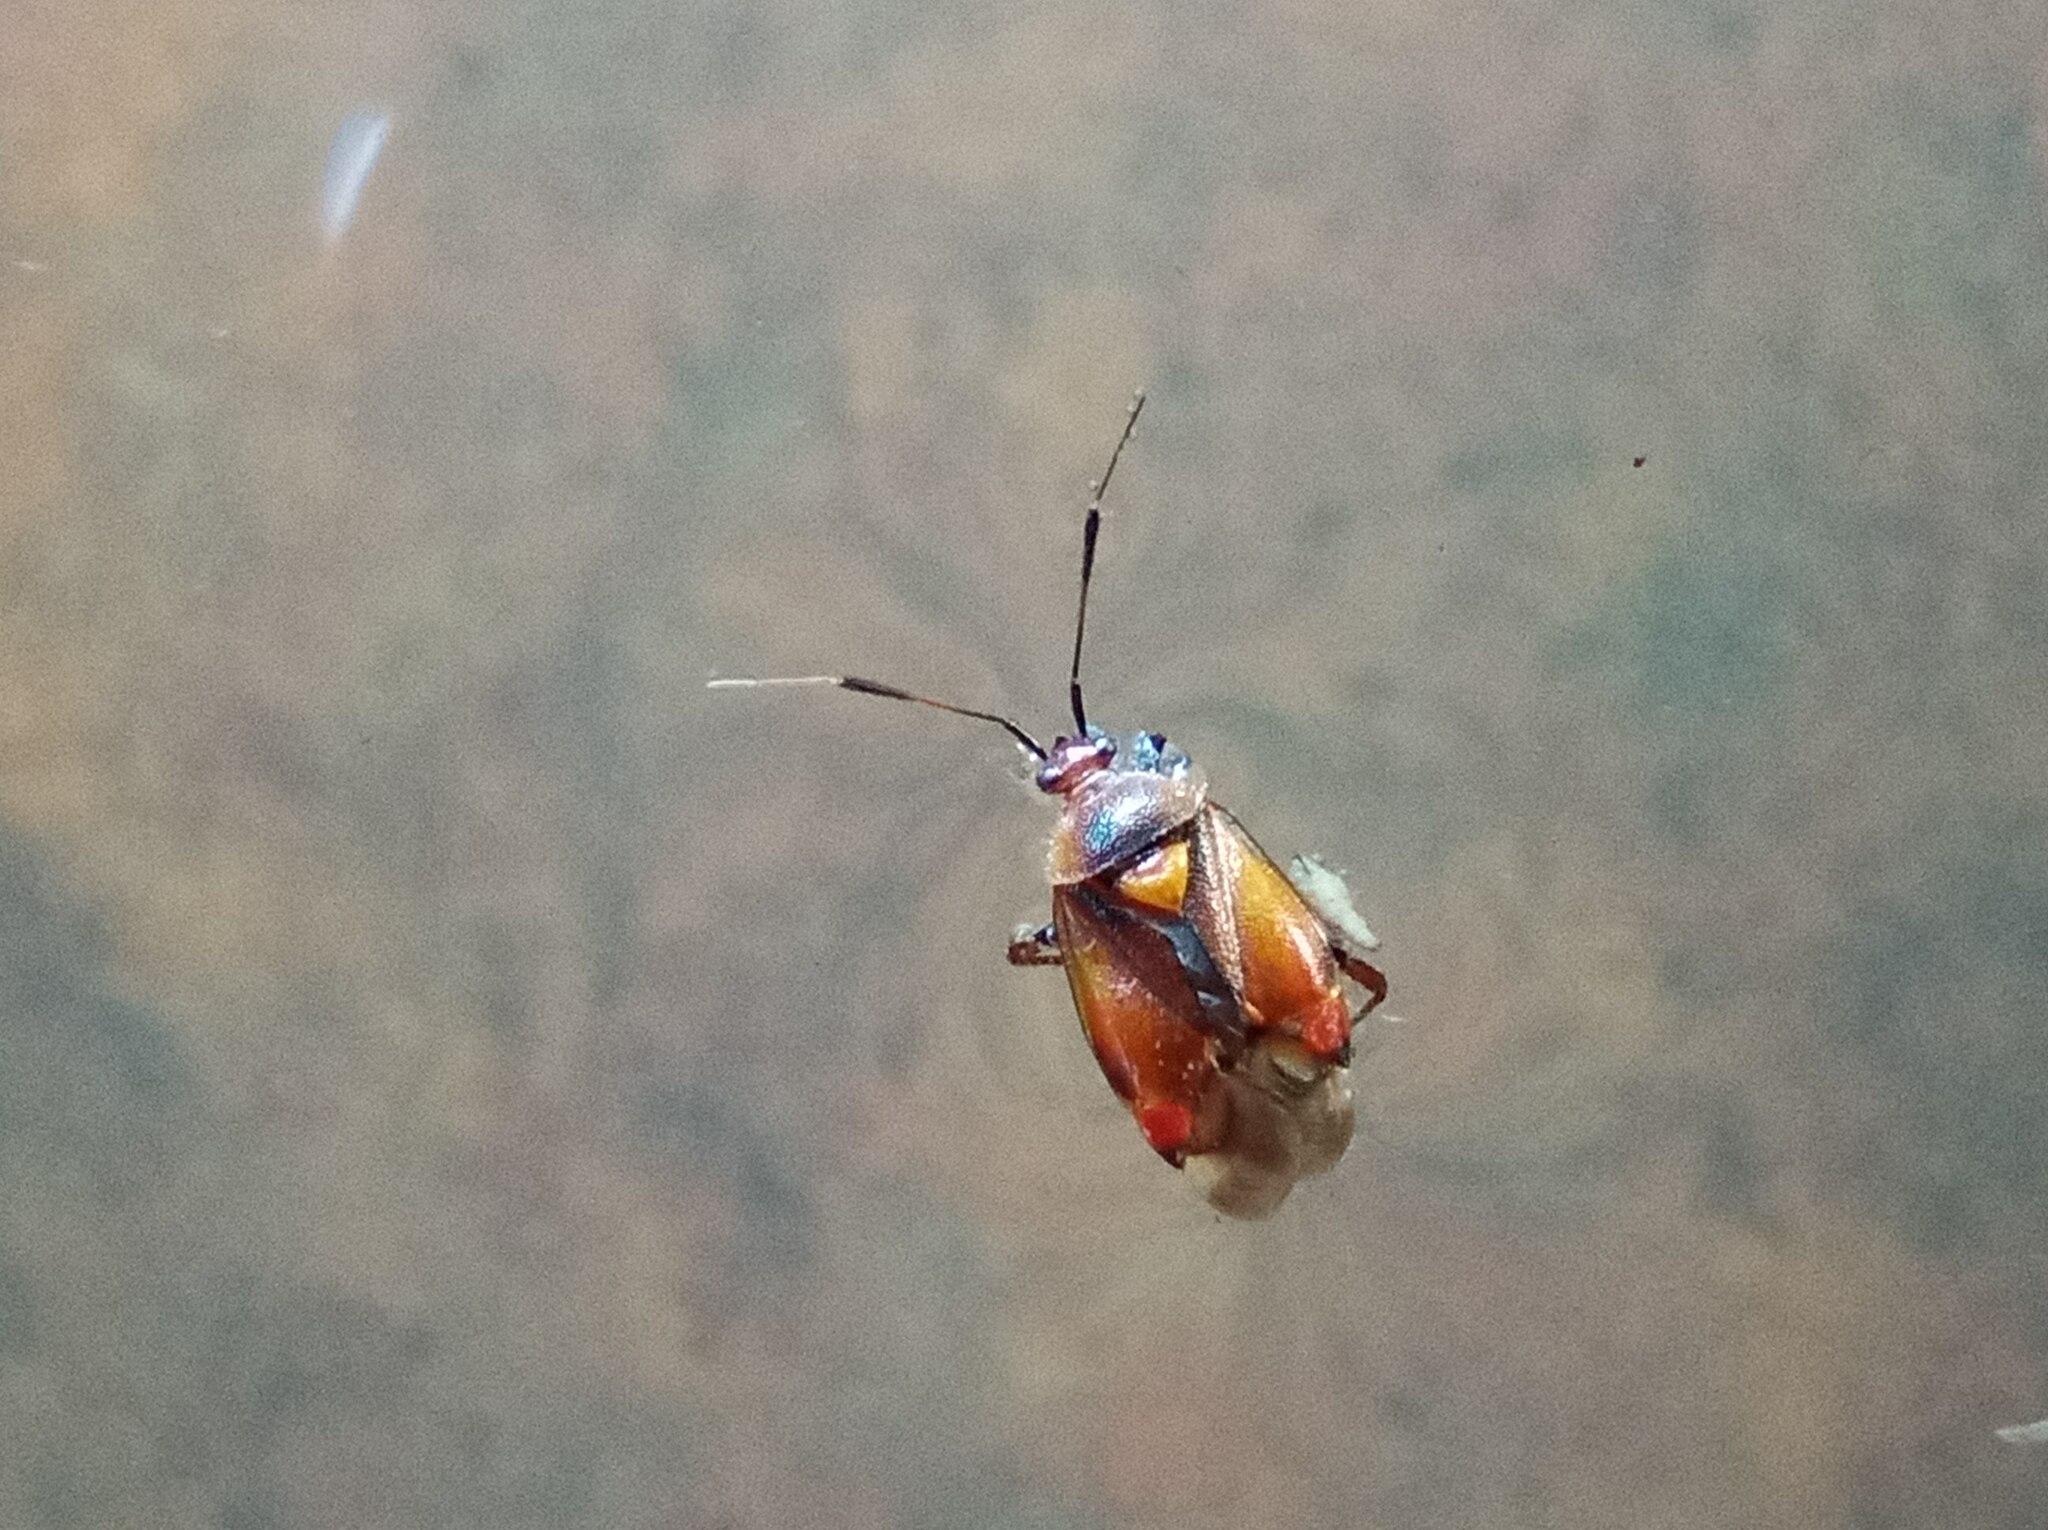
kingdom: Animalia
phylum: Arthropoda
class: Insecta
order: Hemiptera
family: Miridae
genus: Deraeocoris
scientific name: Deraeocoris ruber
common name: Plant bug
